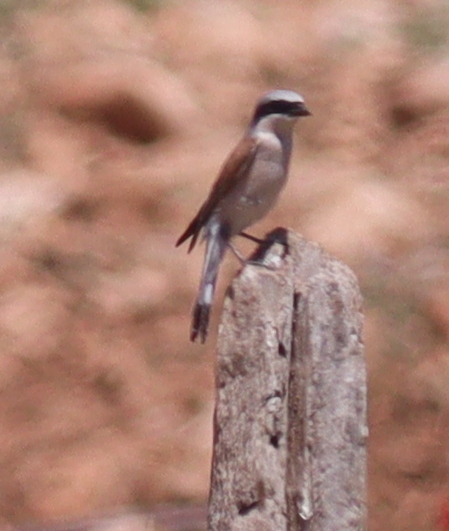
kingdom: Animalia
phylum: Chordata
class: Aves
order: Passeriformes
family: Laniidae
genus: Lanius
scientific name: Lanius collurio
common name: Red-backed shrike
